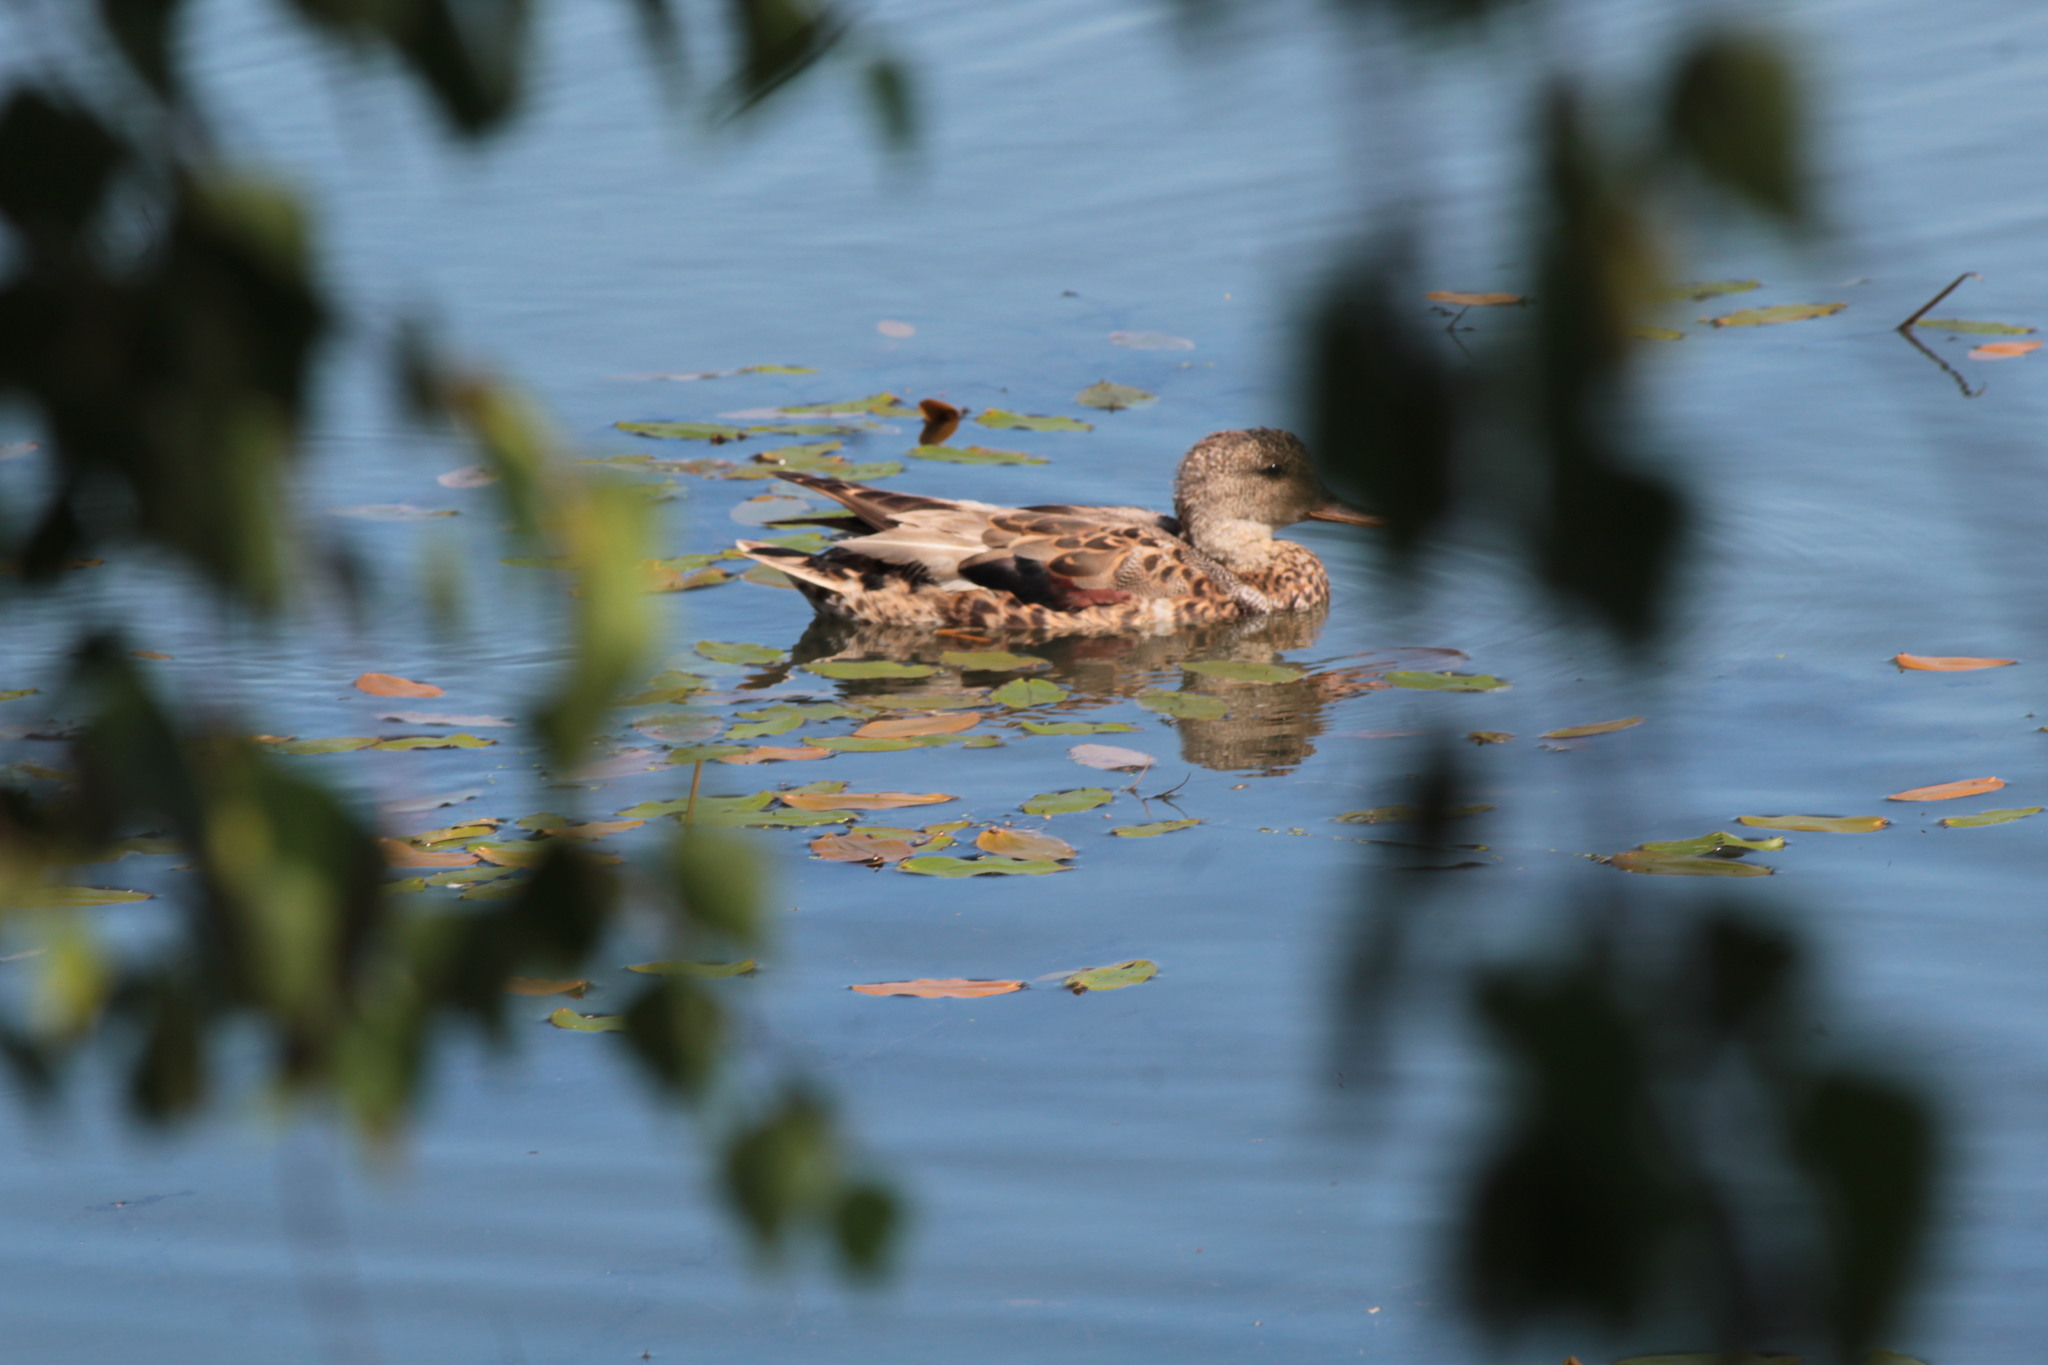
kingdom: Animalia
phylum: Chordata
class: Aves
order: Anseriformes
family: Anatidae
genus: Mareca
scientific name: Mareca strepera
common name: Gadwall
